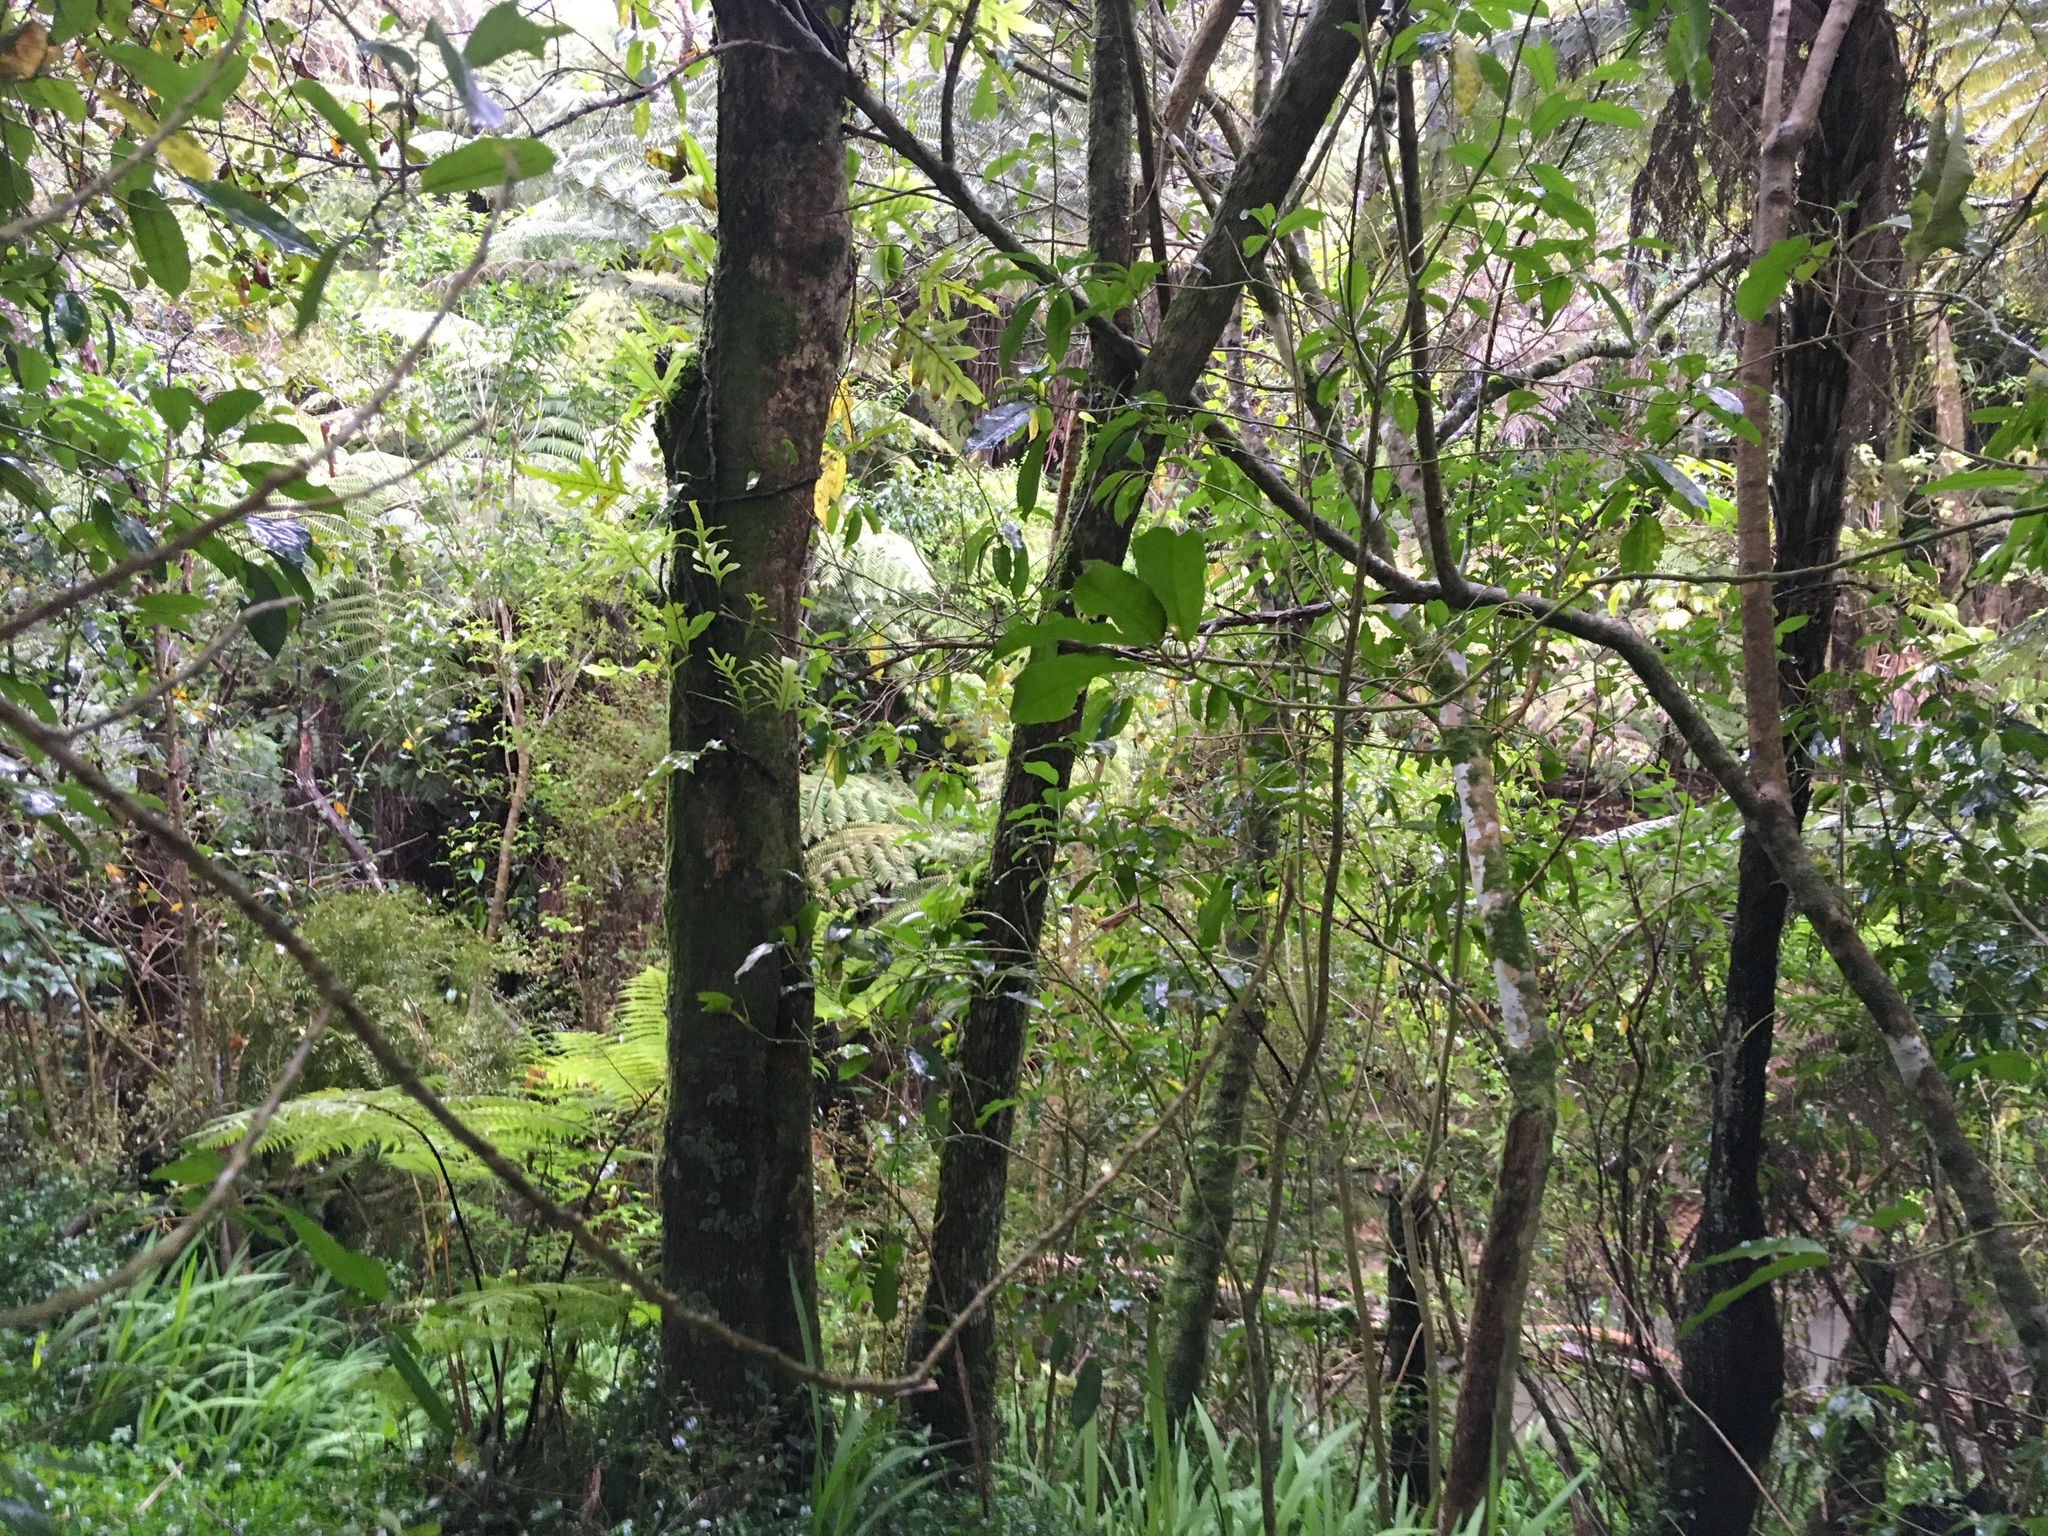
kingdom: Plantae
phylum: Tracheophyta
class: Polypodiopsida
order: Polypodiales
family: Polypodiaceae
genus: Lecanopteris
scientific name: Lecanopteris pustulata
